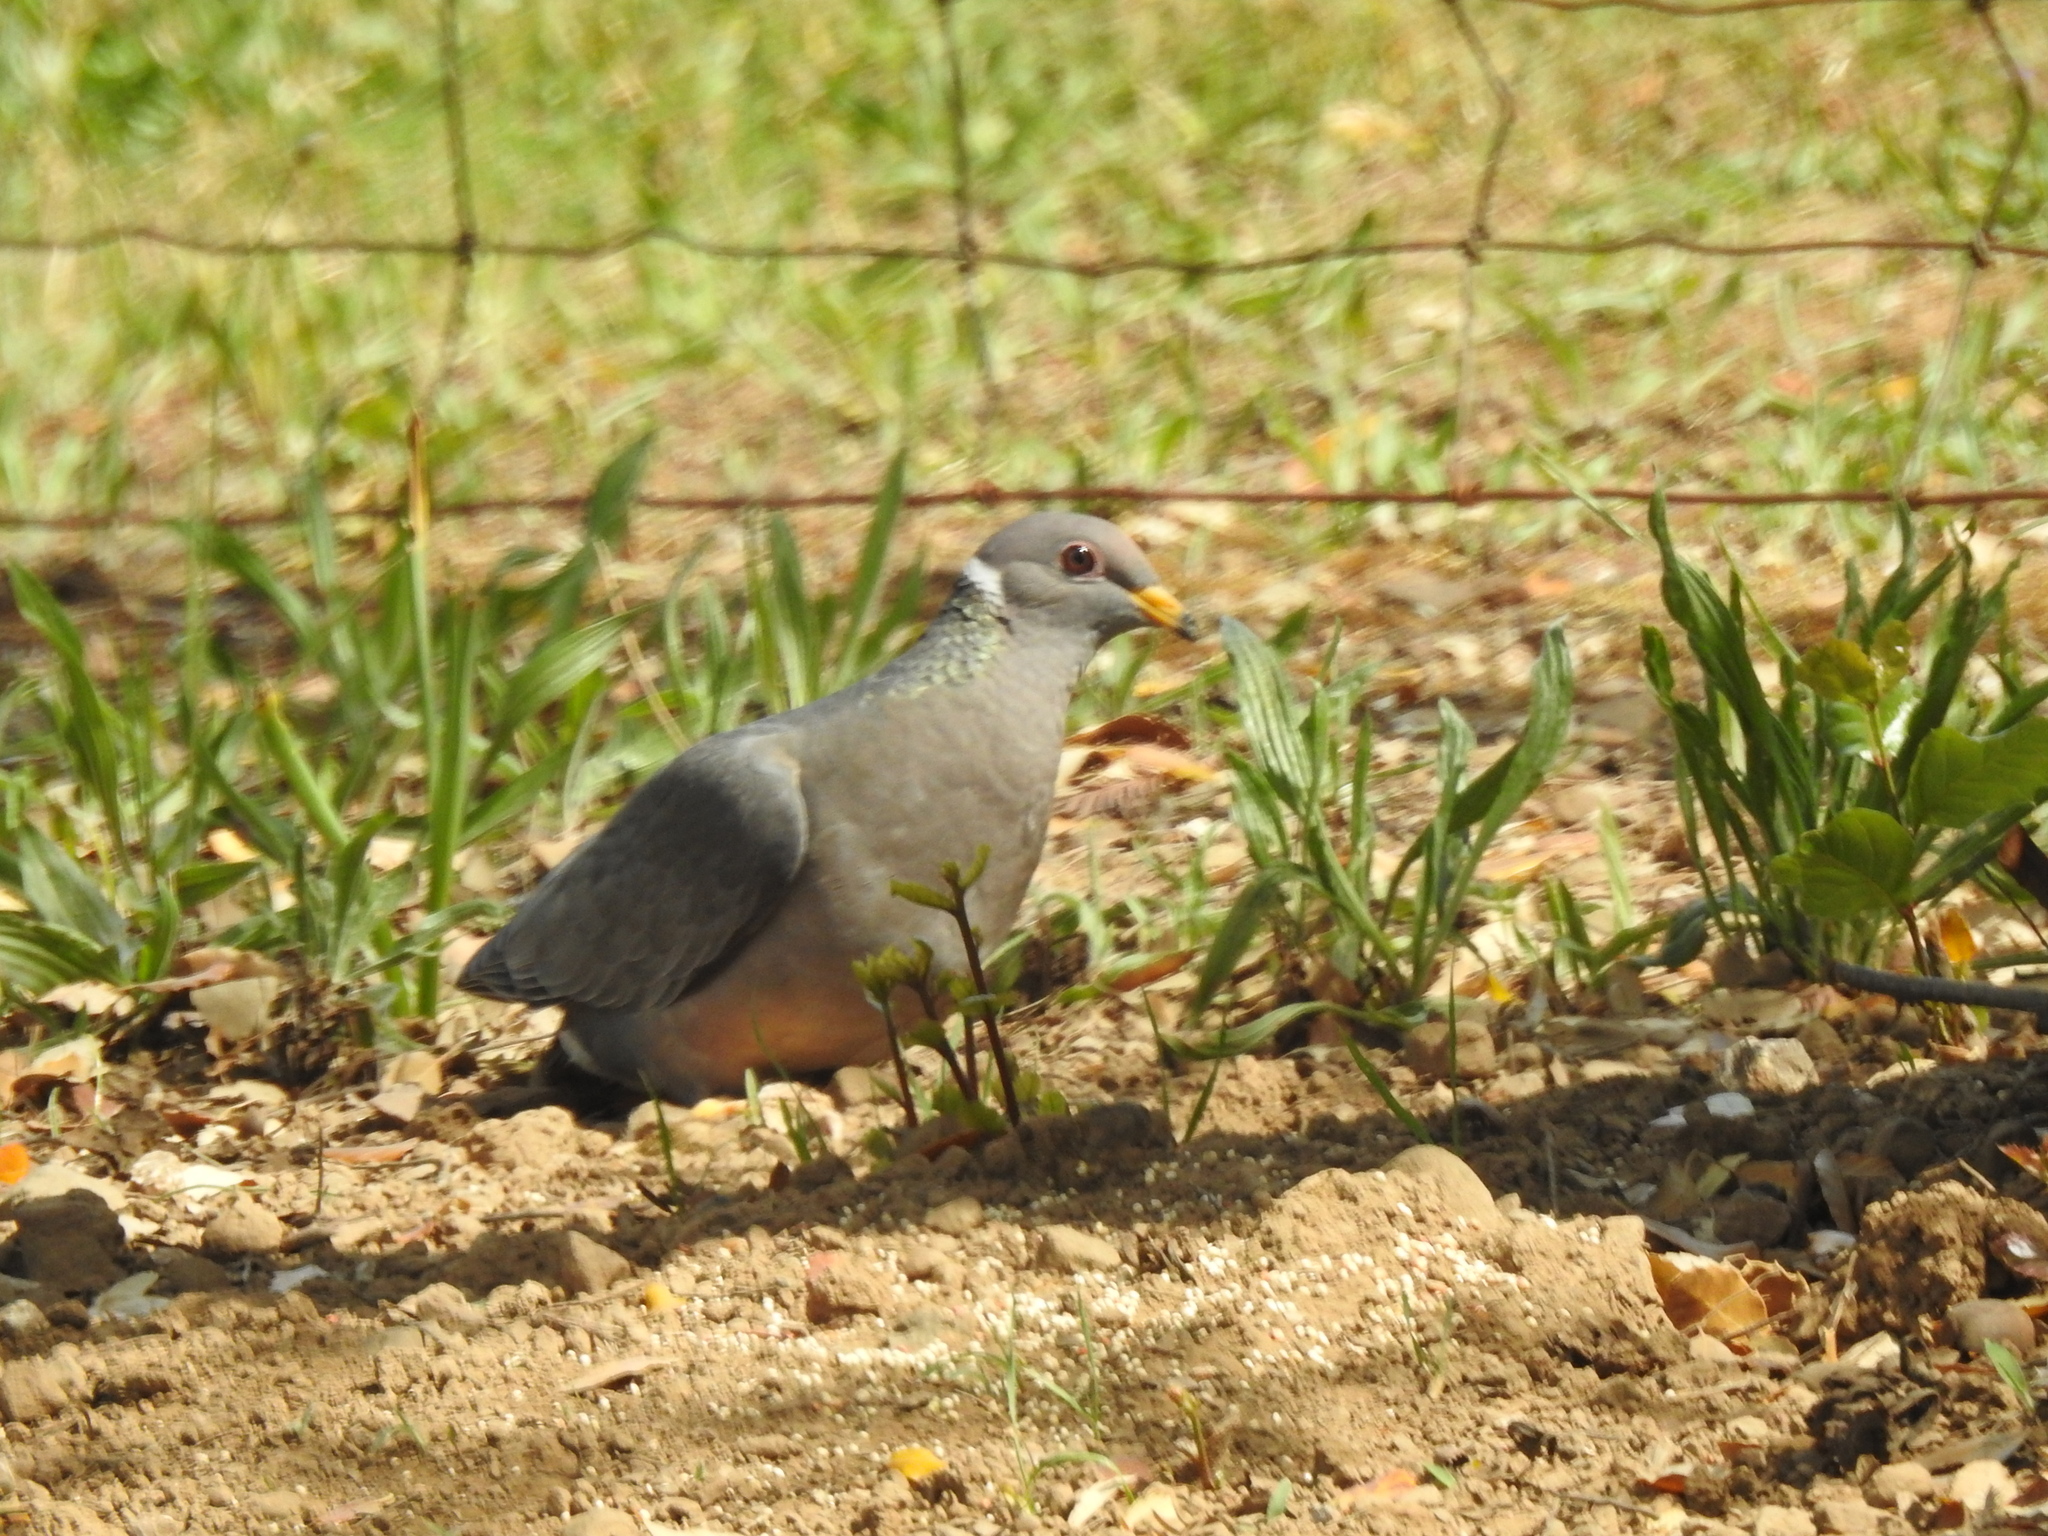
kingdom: Animalia
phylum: Chordata
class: Aves
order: Columbiformes
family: Columbidae
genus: Patagioenas
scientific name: Patagioenas fasciata
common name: Band-tailed pigeon
